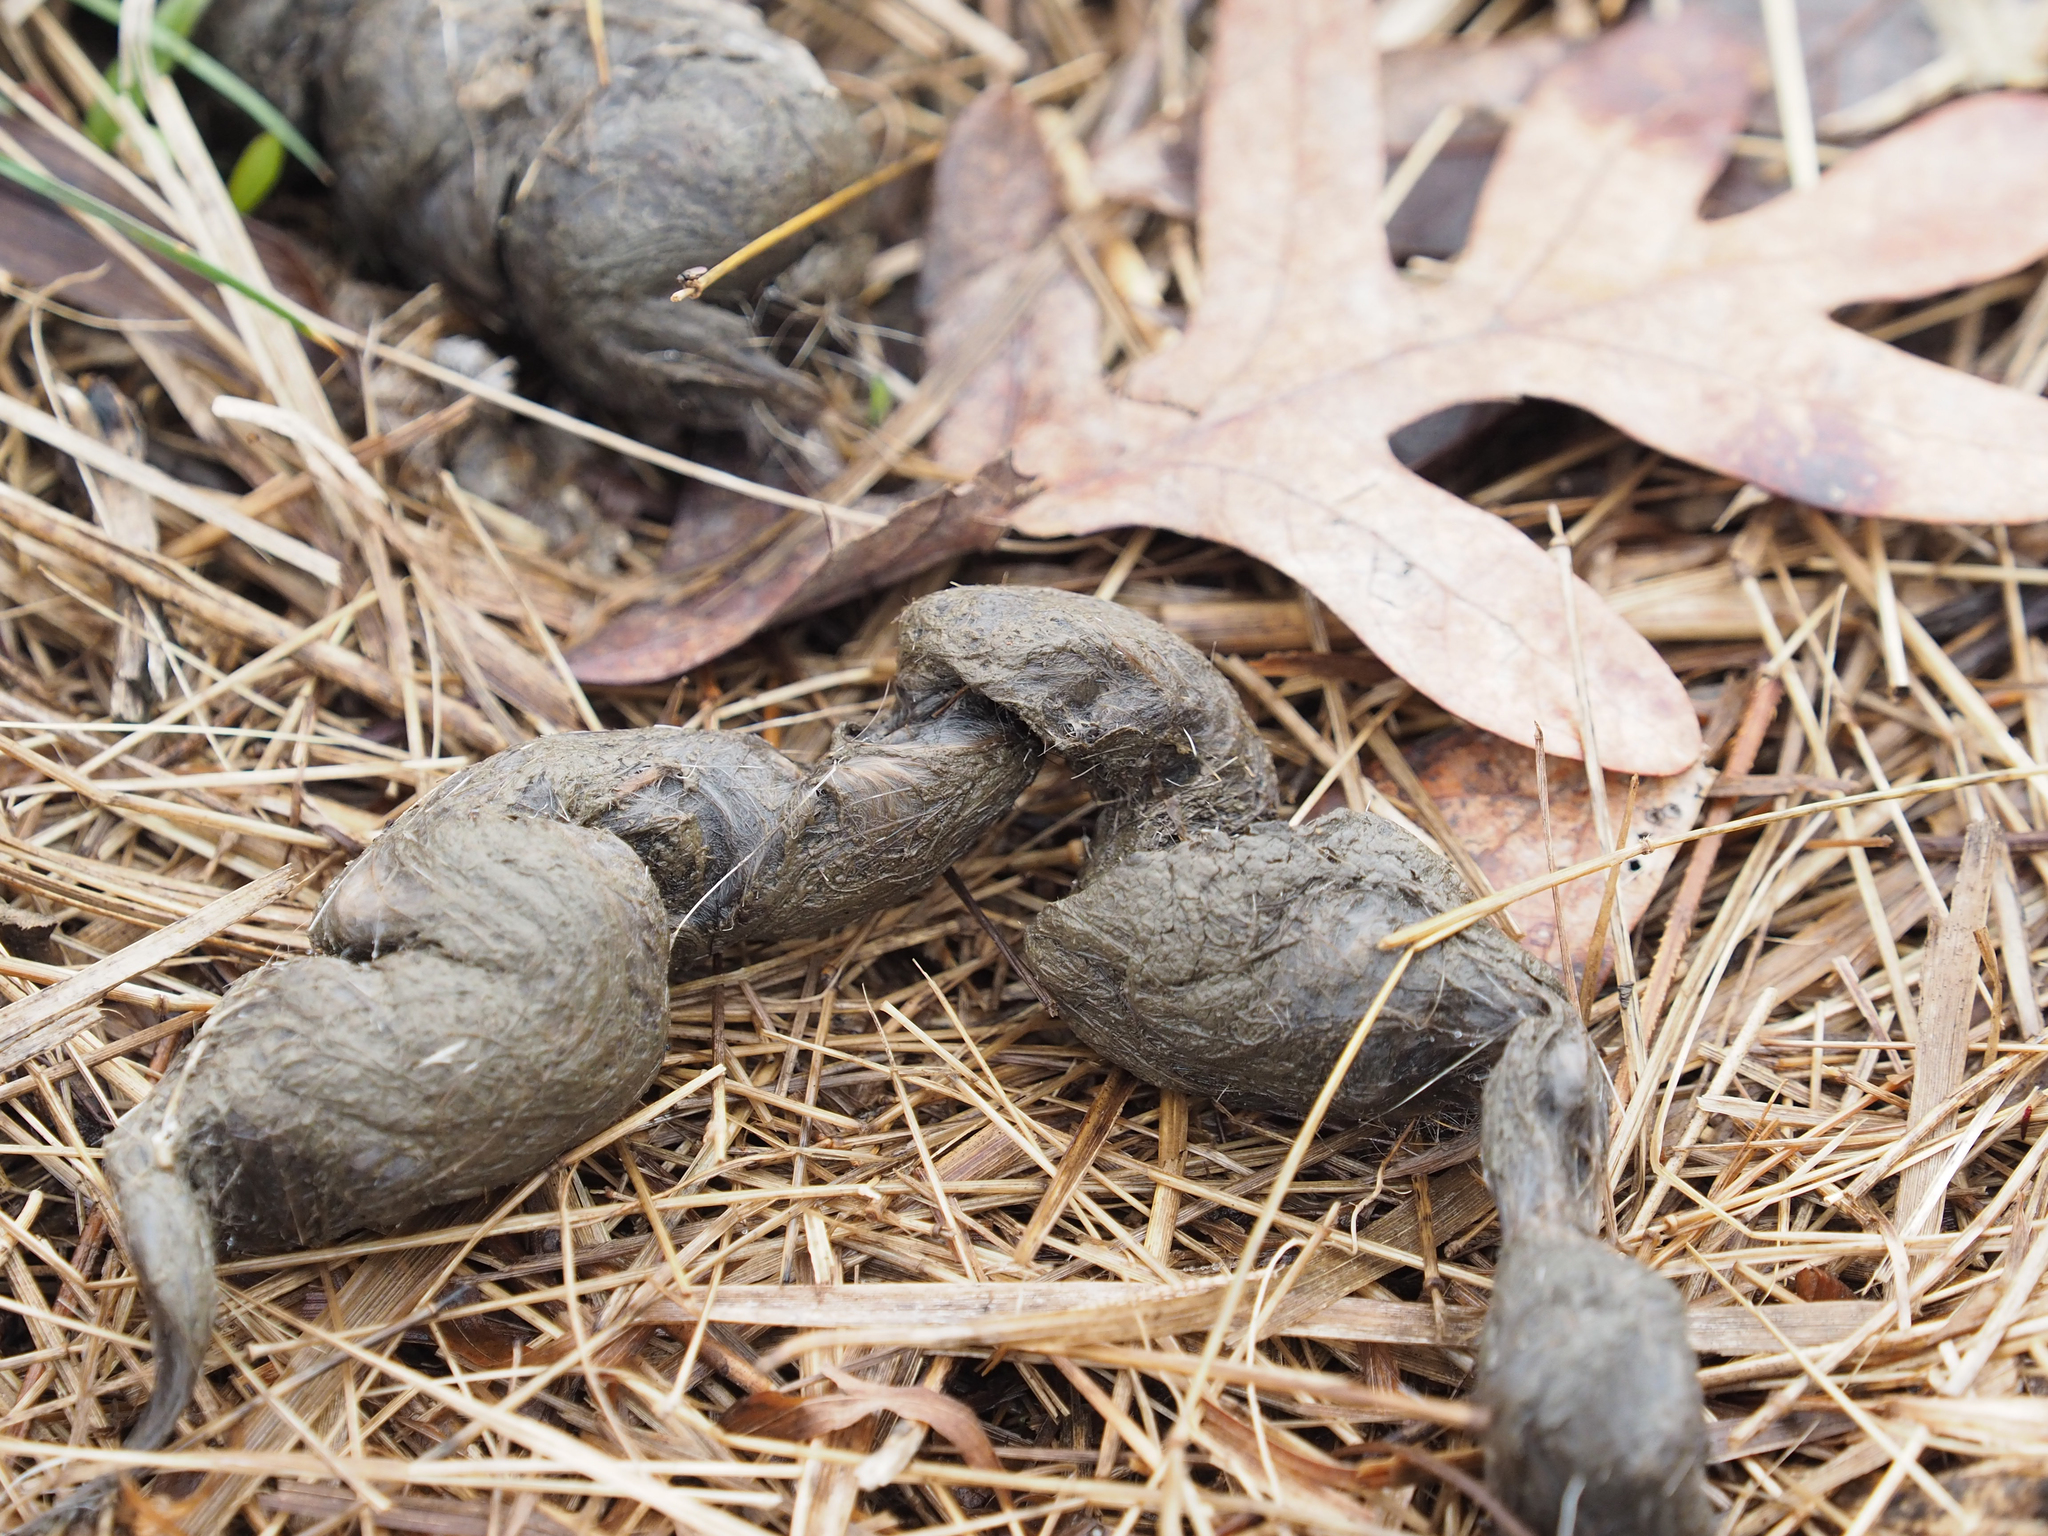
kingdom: Animalia
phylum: Chordata
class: Mammalia
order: Carnivora
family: Canidae
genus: Canis
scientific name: Canis latrans
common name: Coyote
